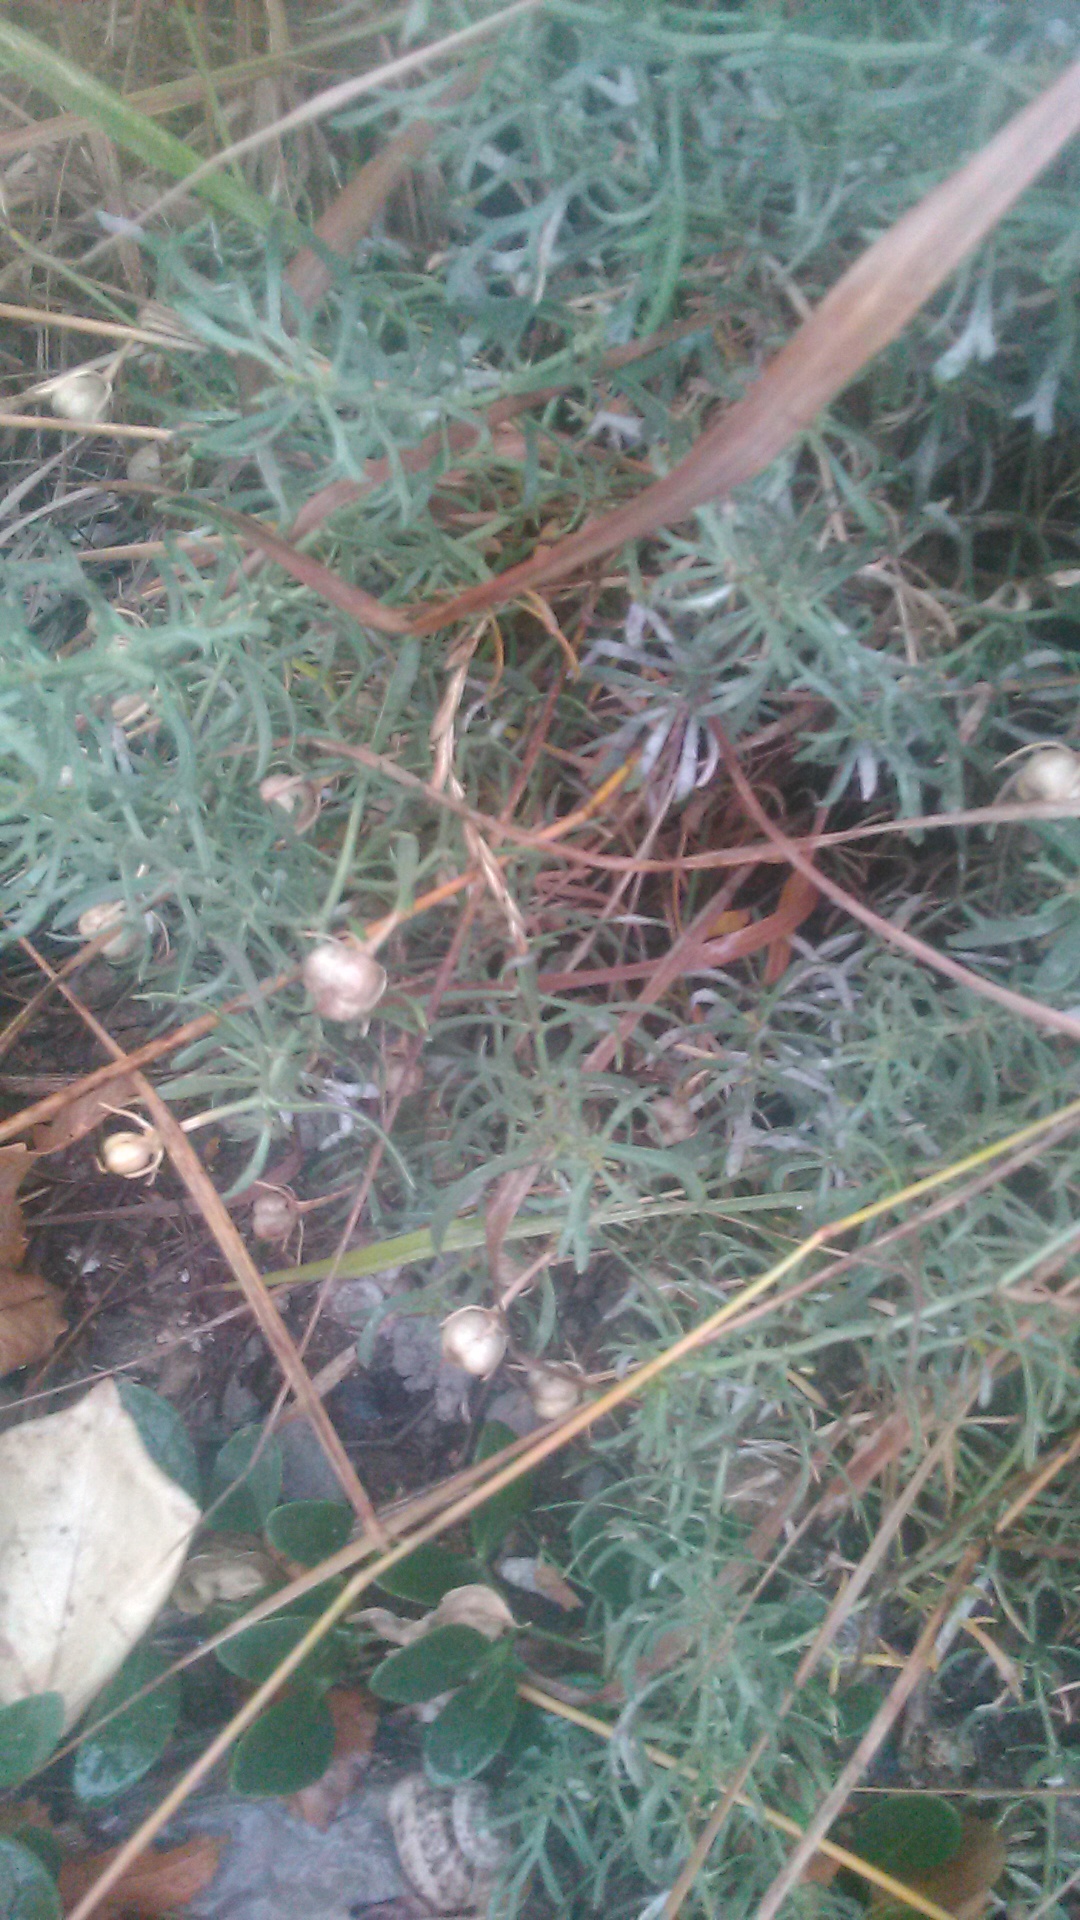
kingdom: Plantae
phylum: Tracheophyta
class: Magnoliopsida
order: Sapindales
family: Tetradiclidaceae
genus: Peganum
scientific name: Peganum harmala
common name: Harmal peganum
